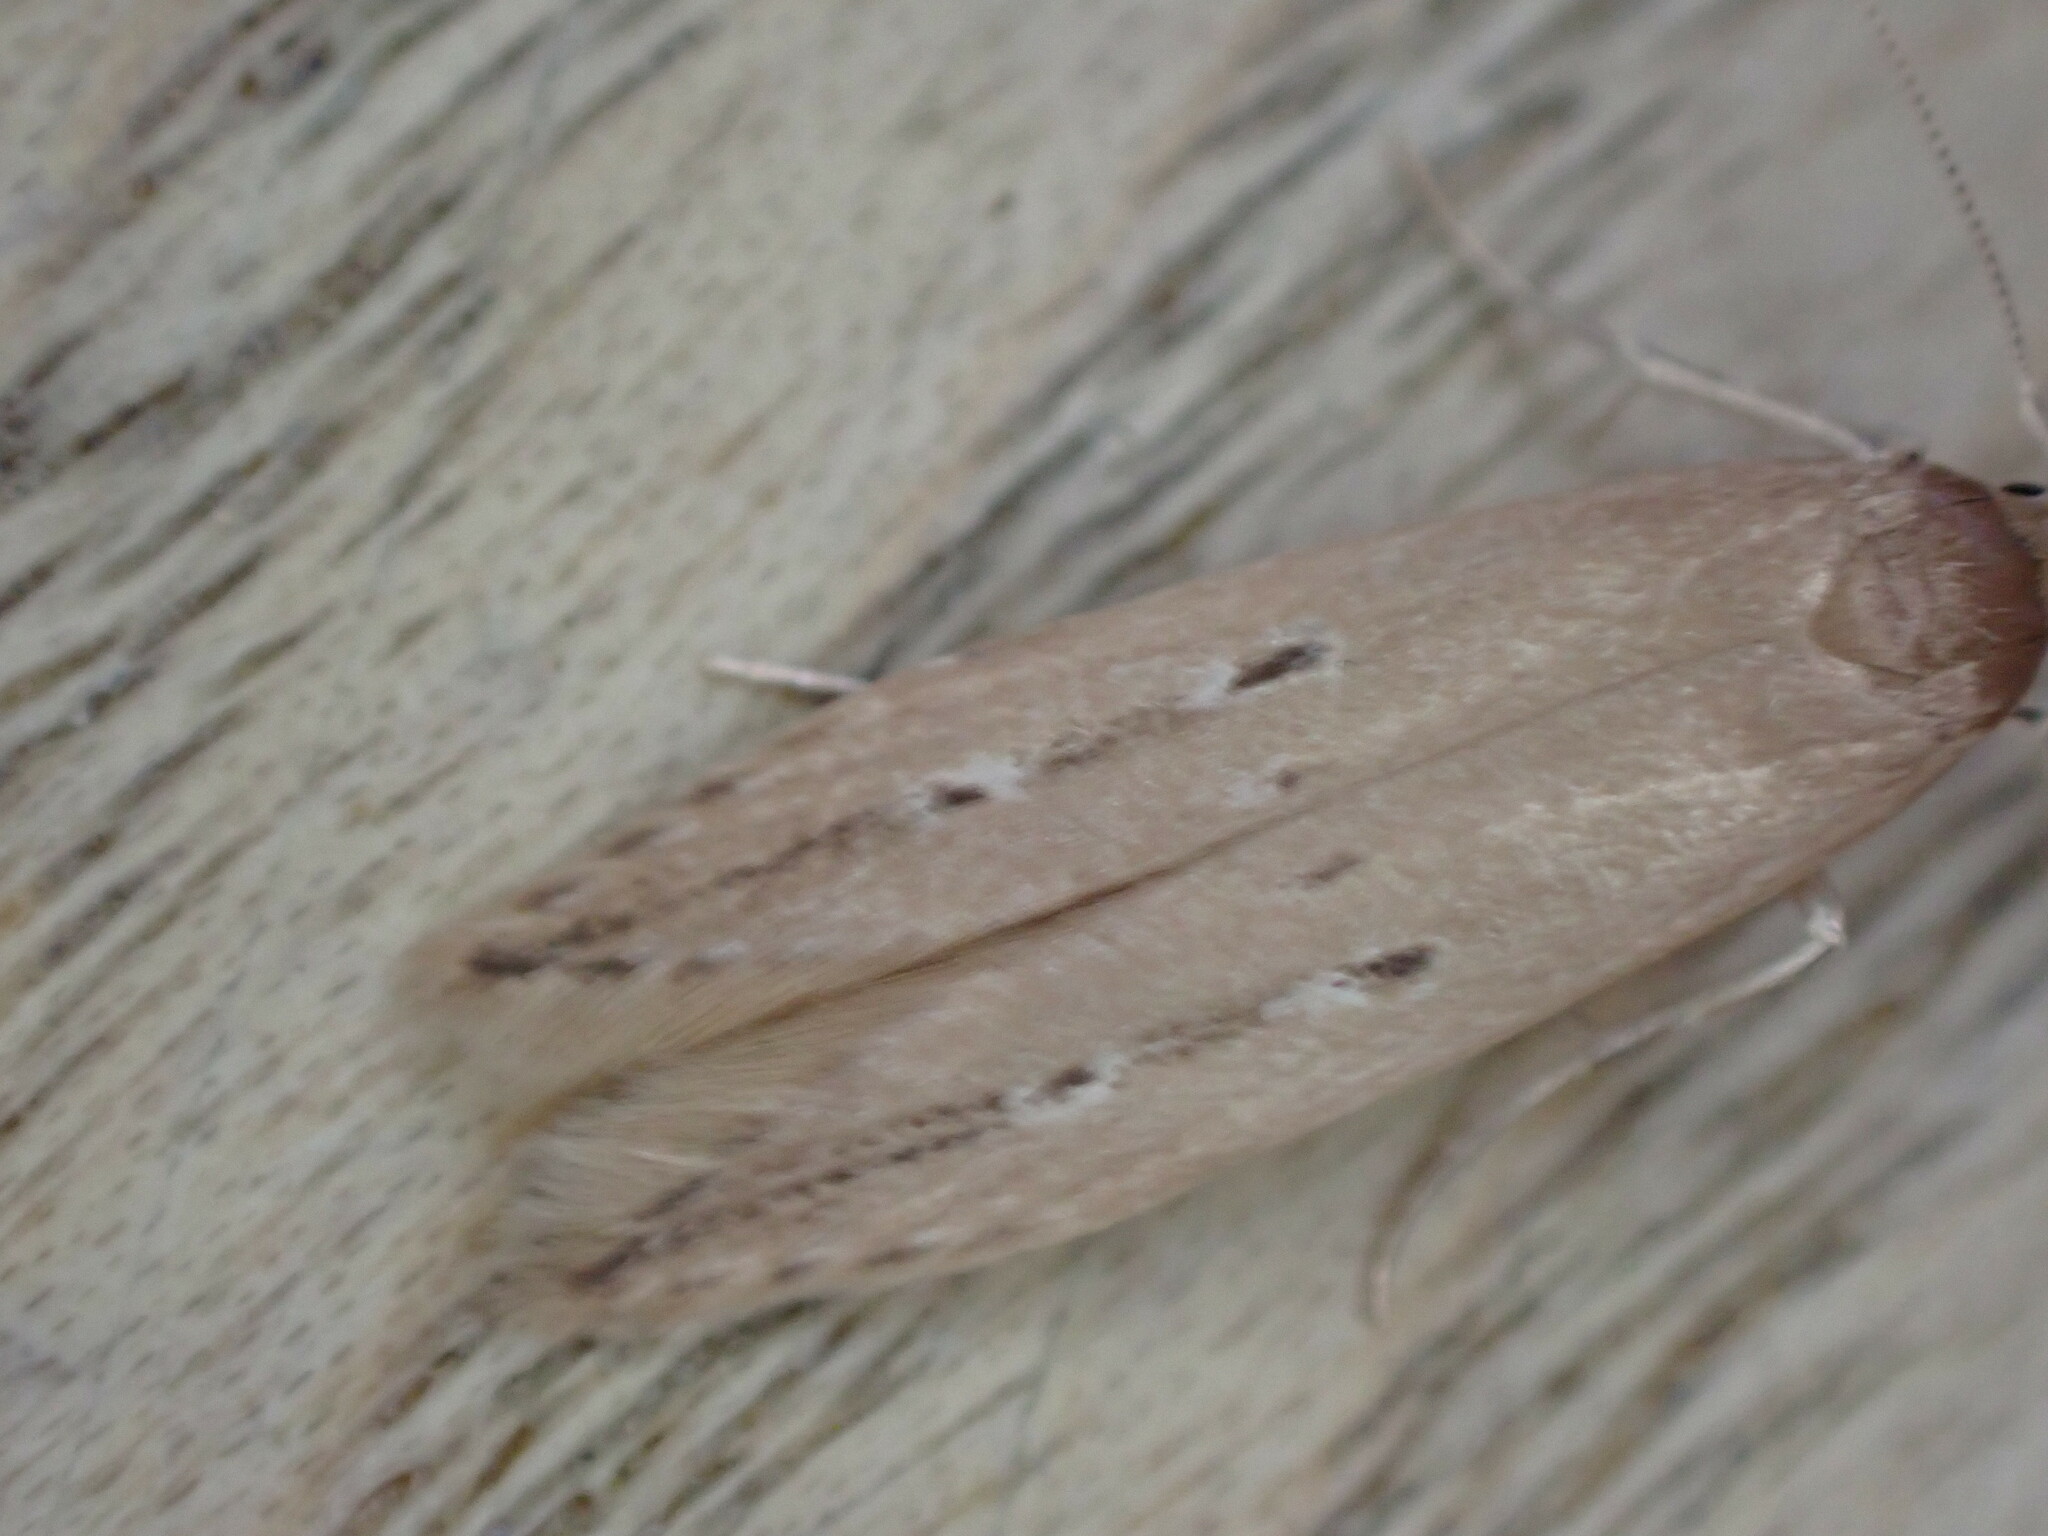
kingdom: Animalia
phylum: Arthropoda
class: Insecta
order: Lepidoptera
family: Cosmopterigidae
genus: Limnaecia
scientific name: Limnaecia phragmitella
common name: Bulrush cosmet
